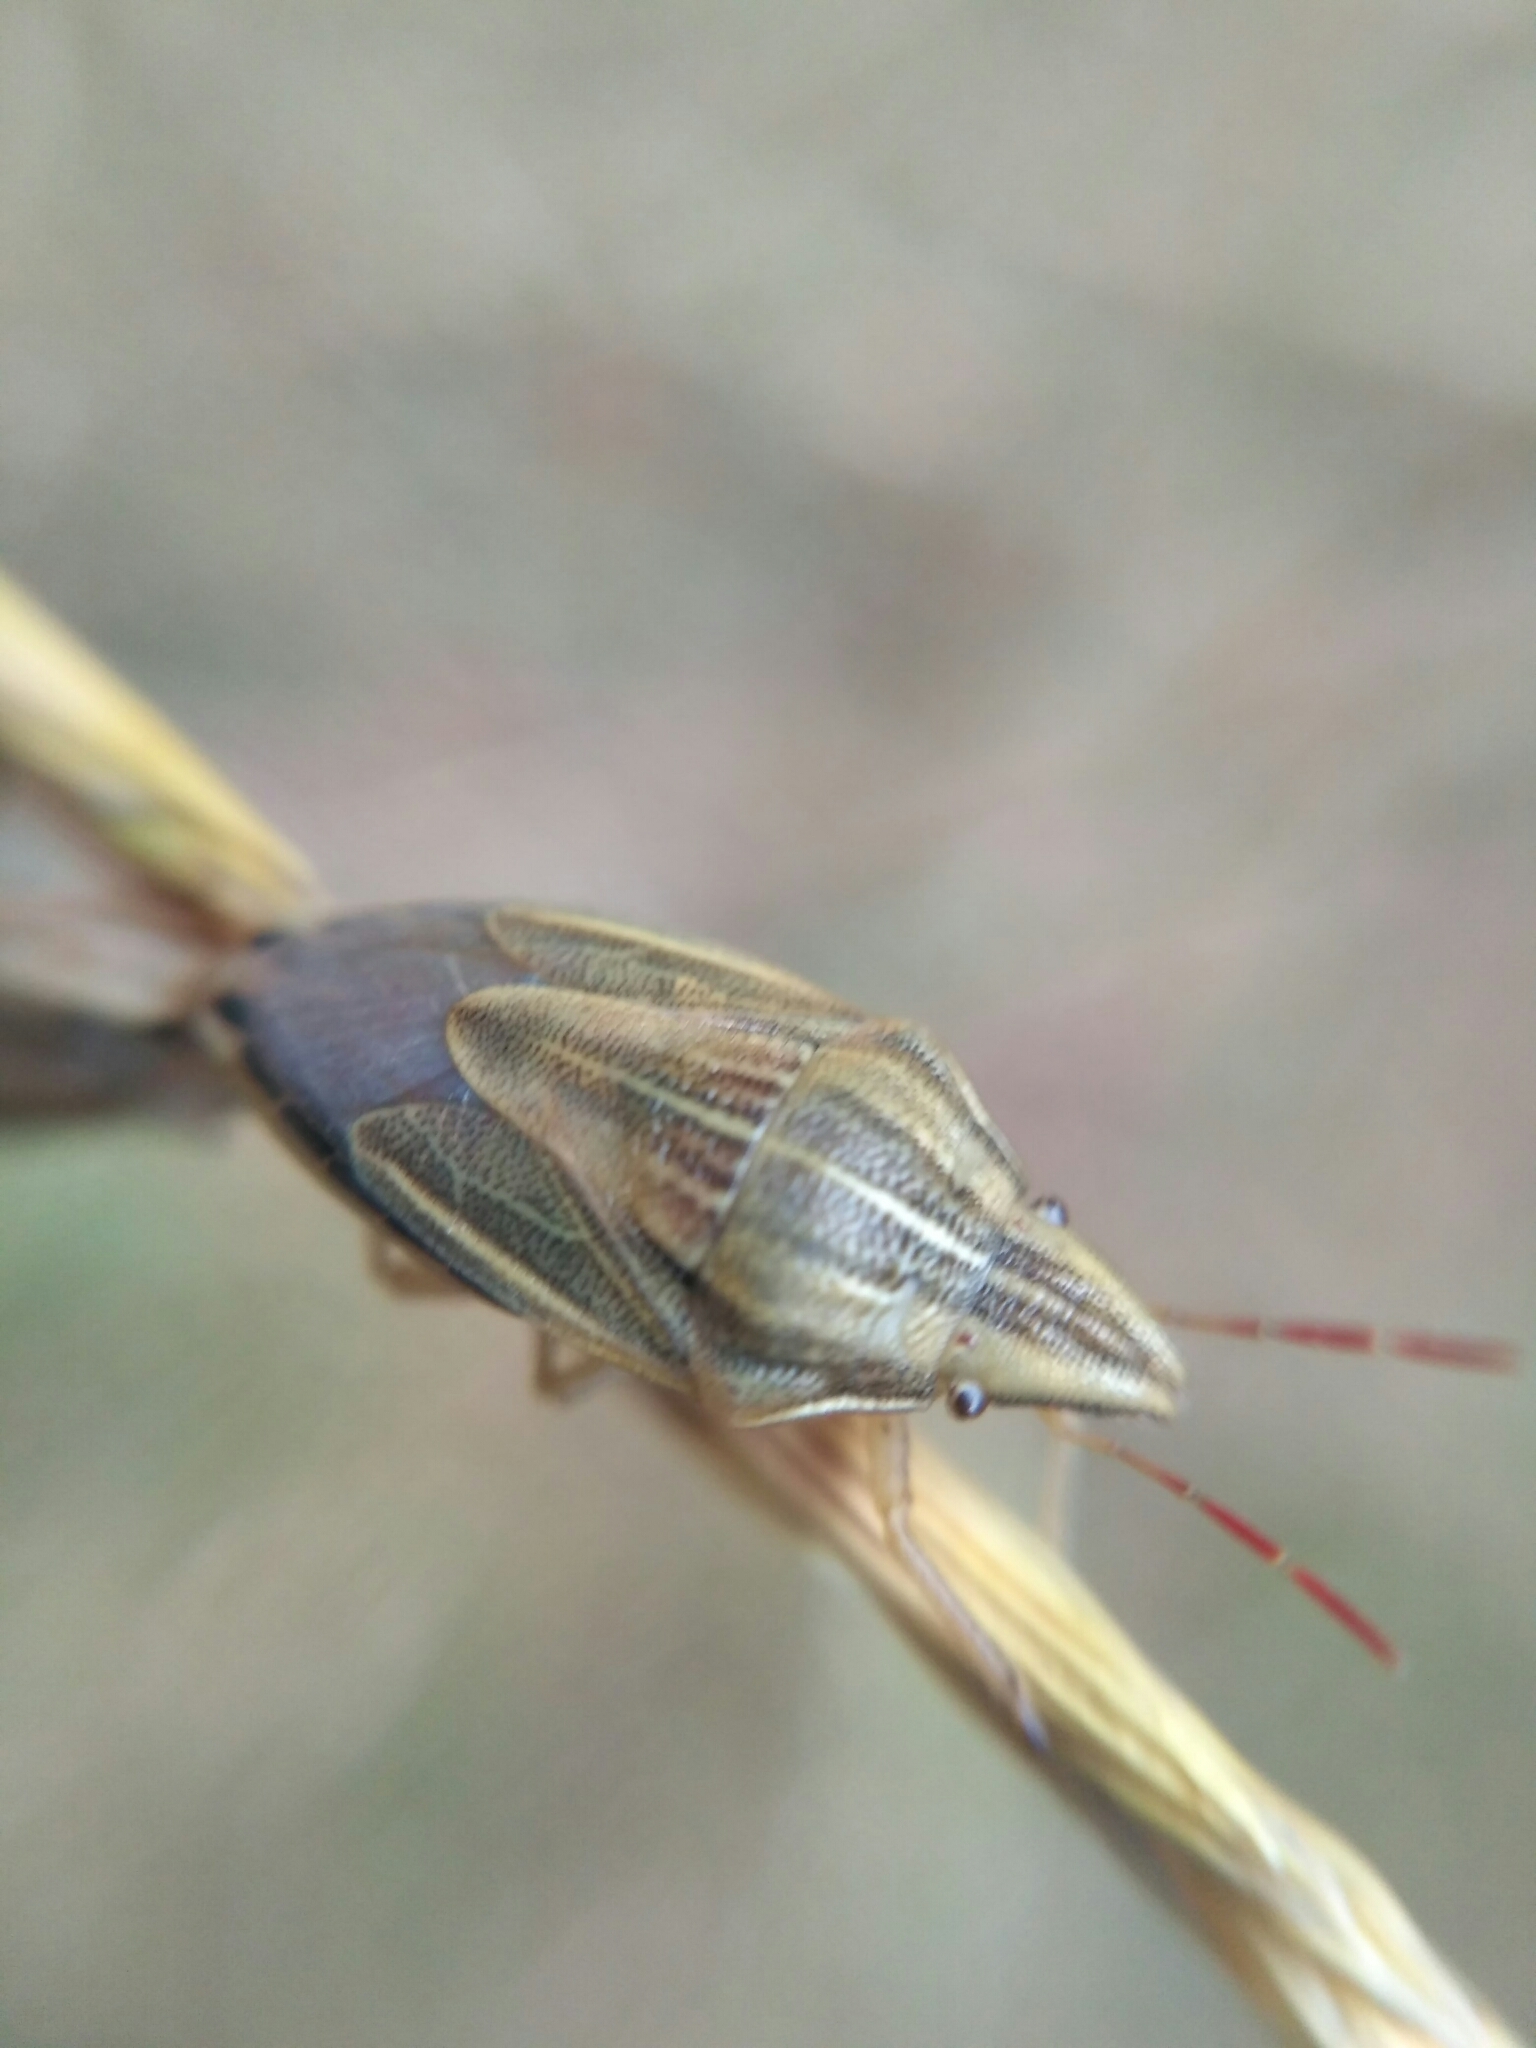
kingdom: Animalia
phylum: Arthropoda
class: Insecta
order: Hemiptera
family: Pentatomidae
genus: Aelia
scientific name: Aelia acuminata
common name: Bishop's mitre
